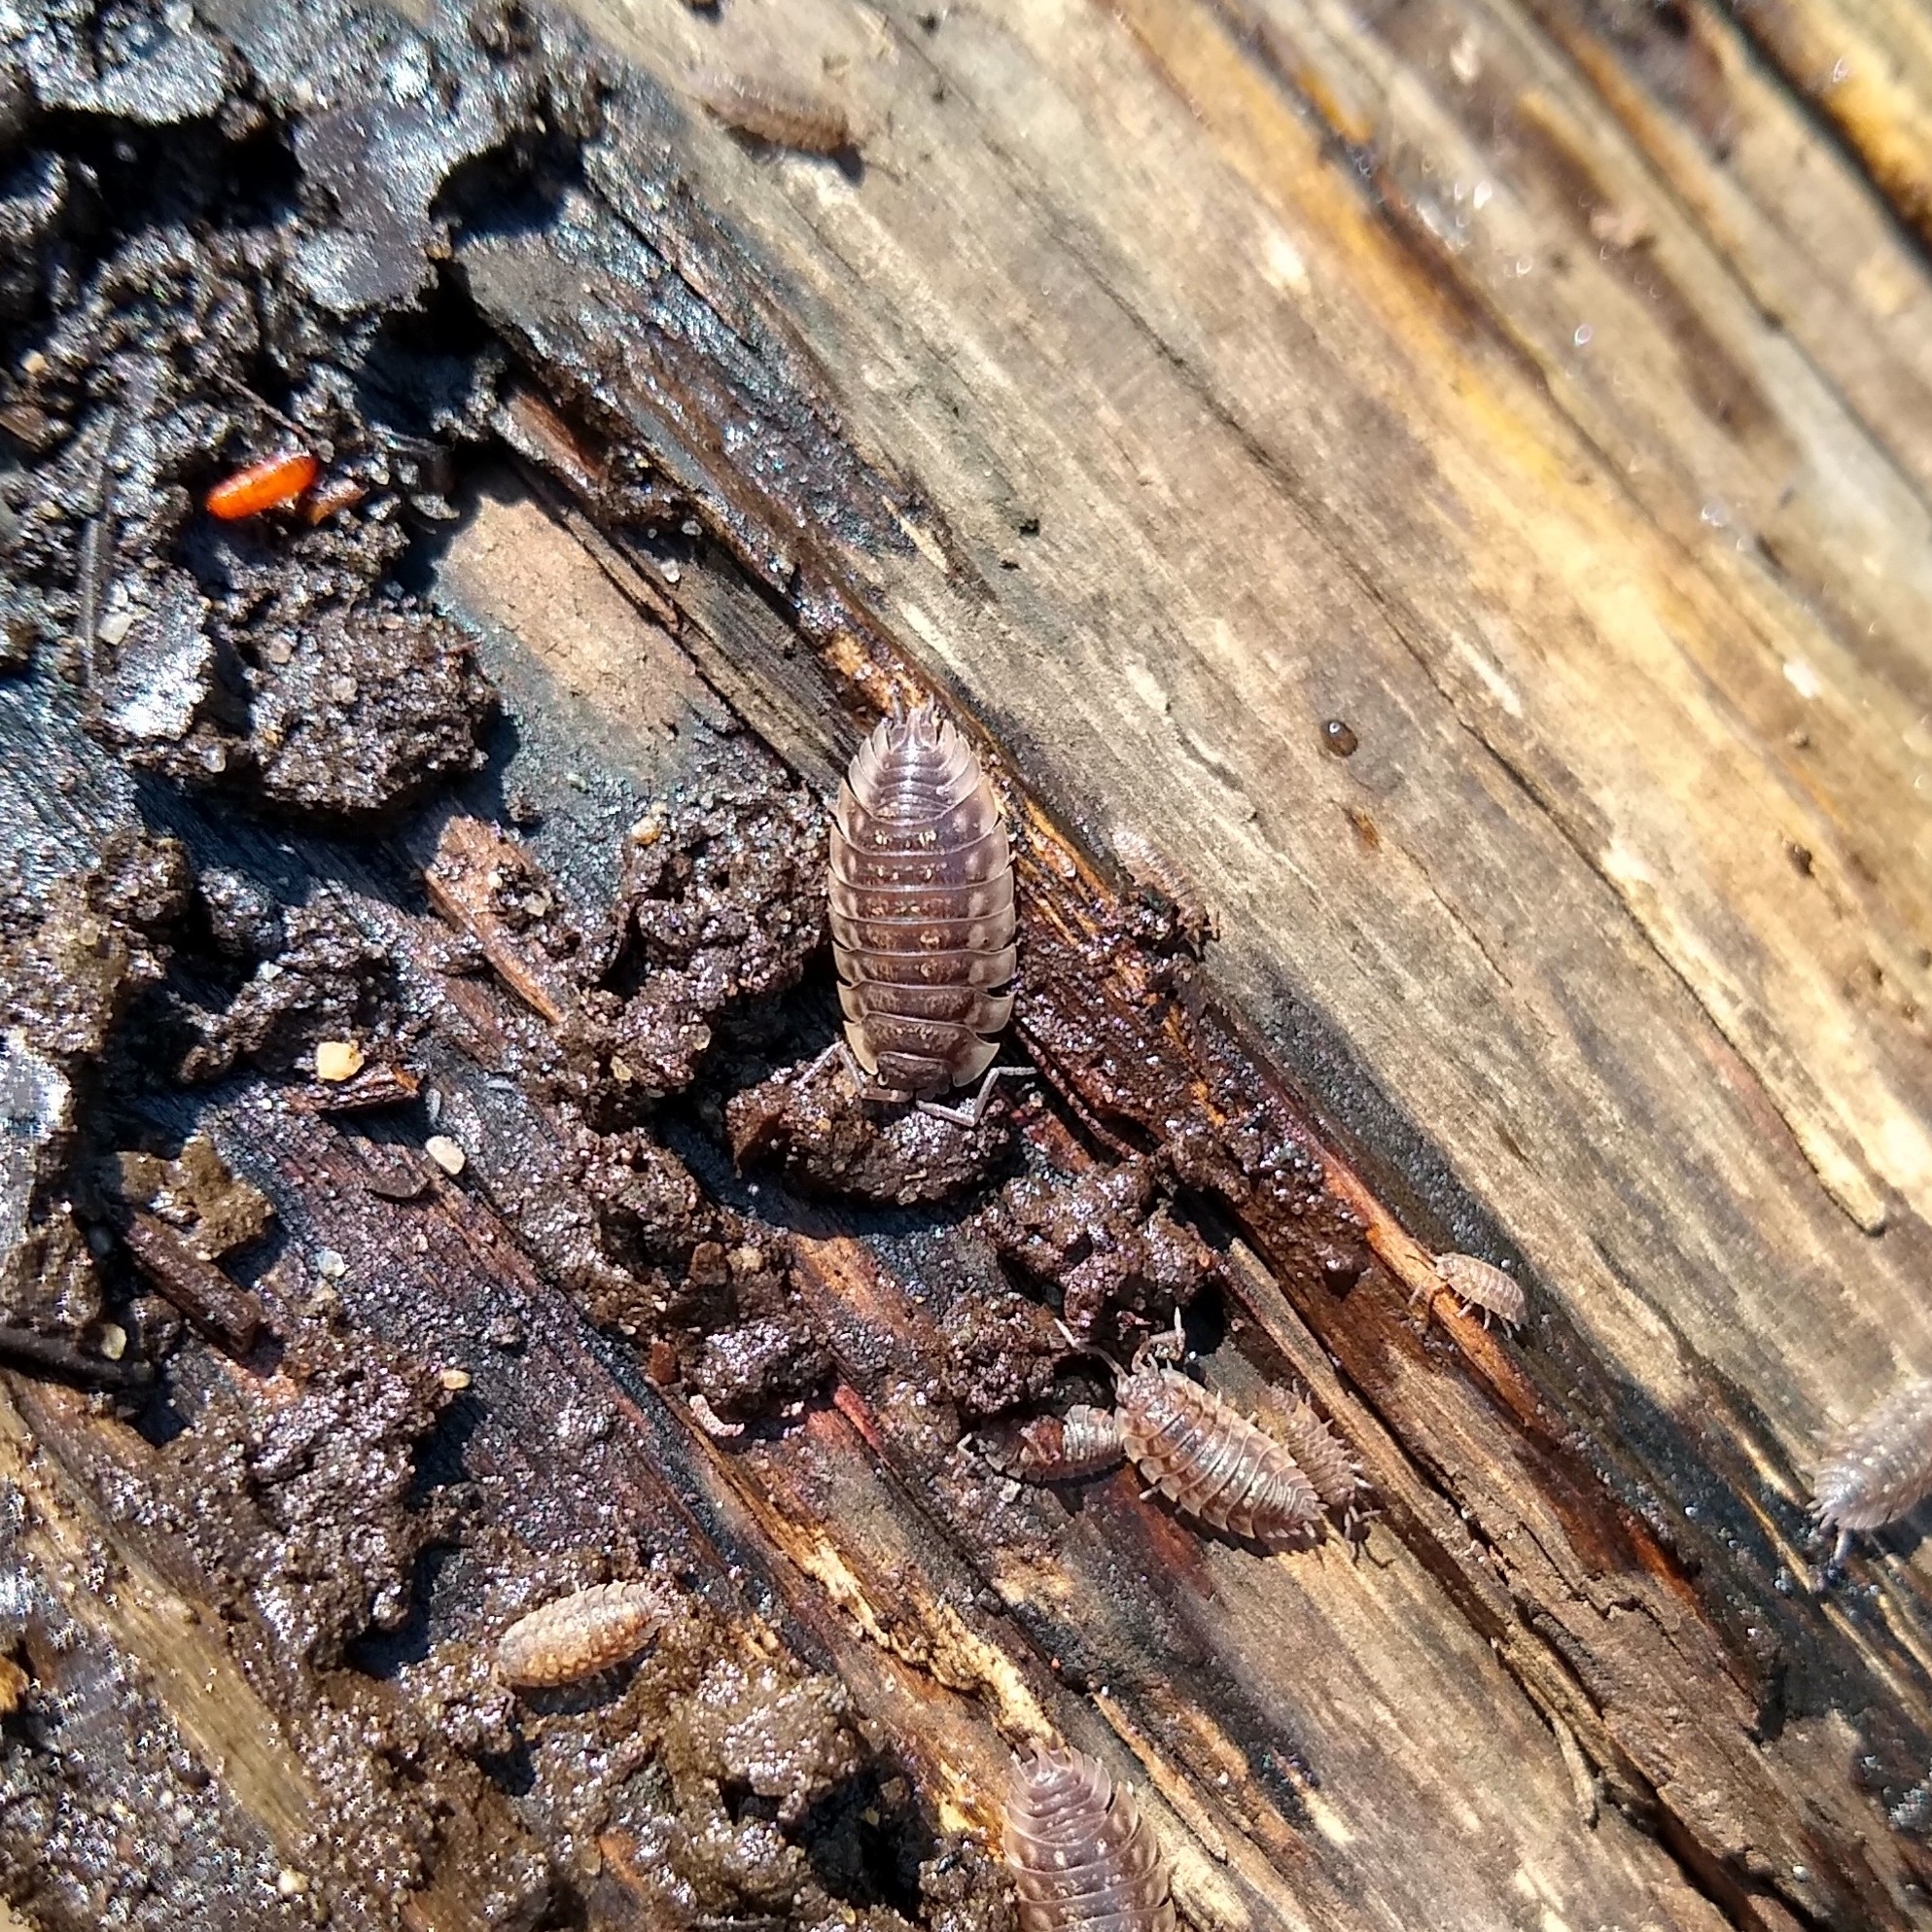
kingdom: Animalia
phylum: Arthropoda
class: Malacostraca
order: Isopoda
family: Oniscidae
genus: Oniscus
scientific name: Oniscus asellus
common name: Common shiny woodlouse
